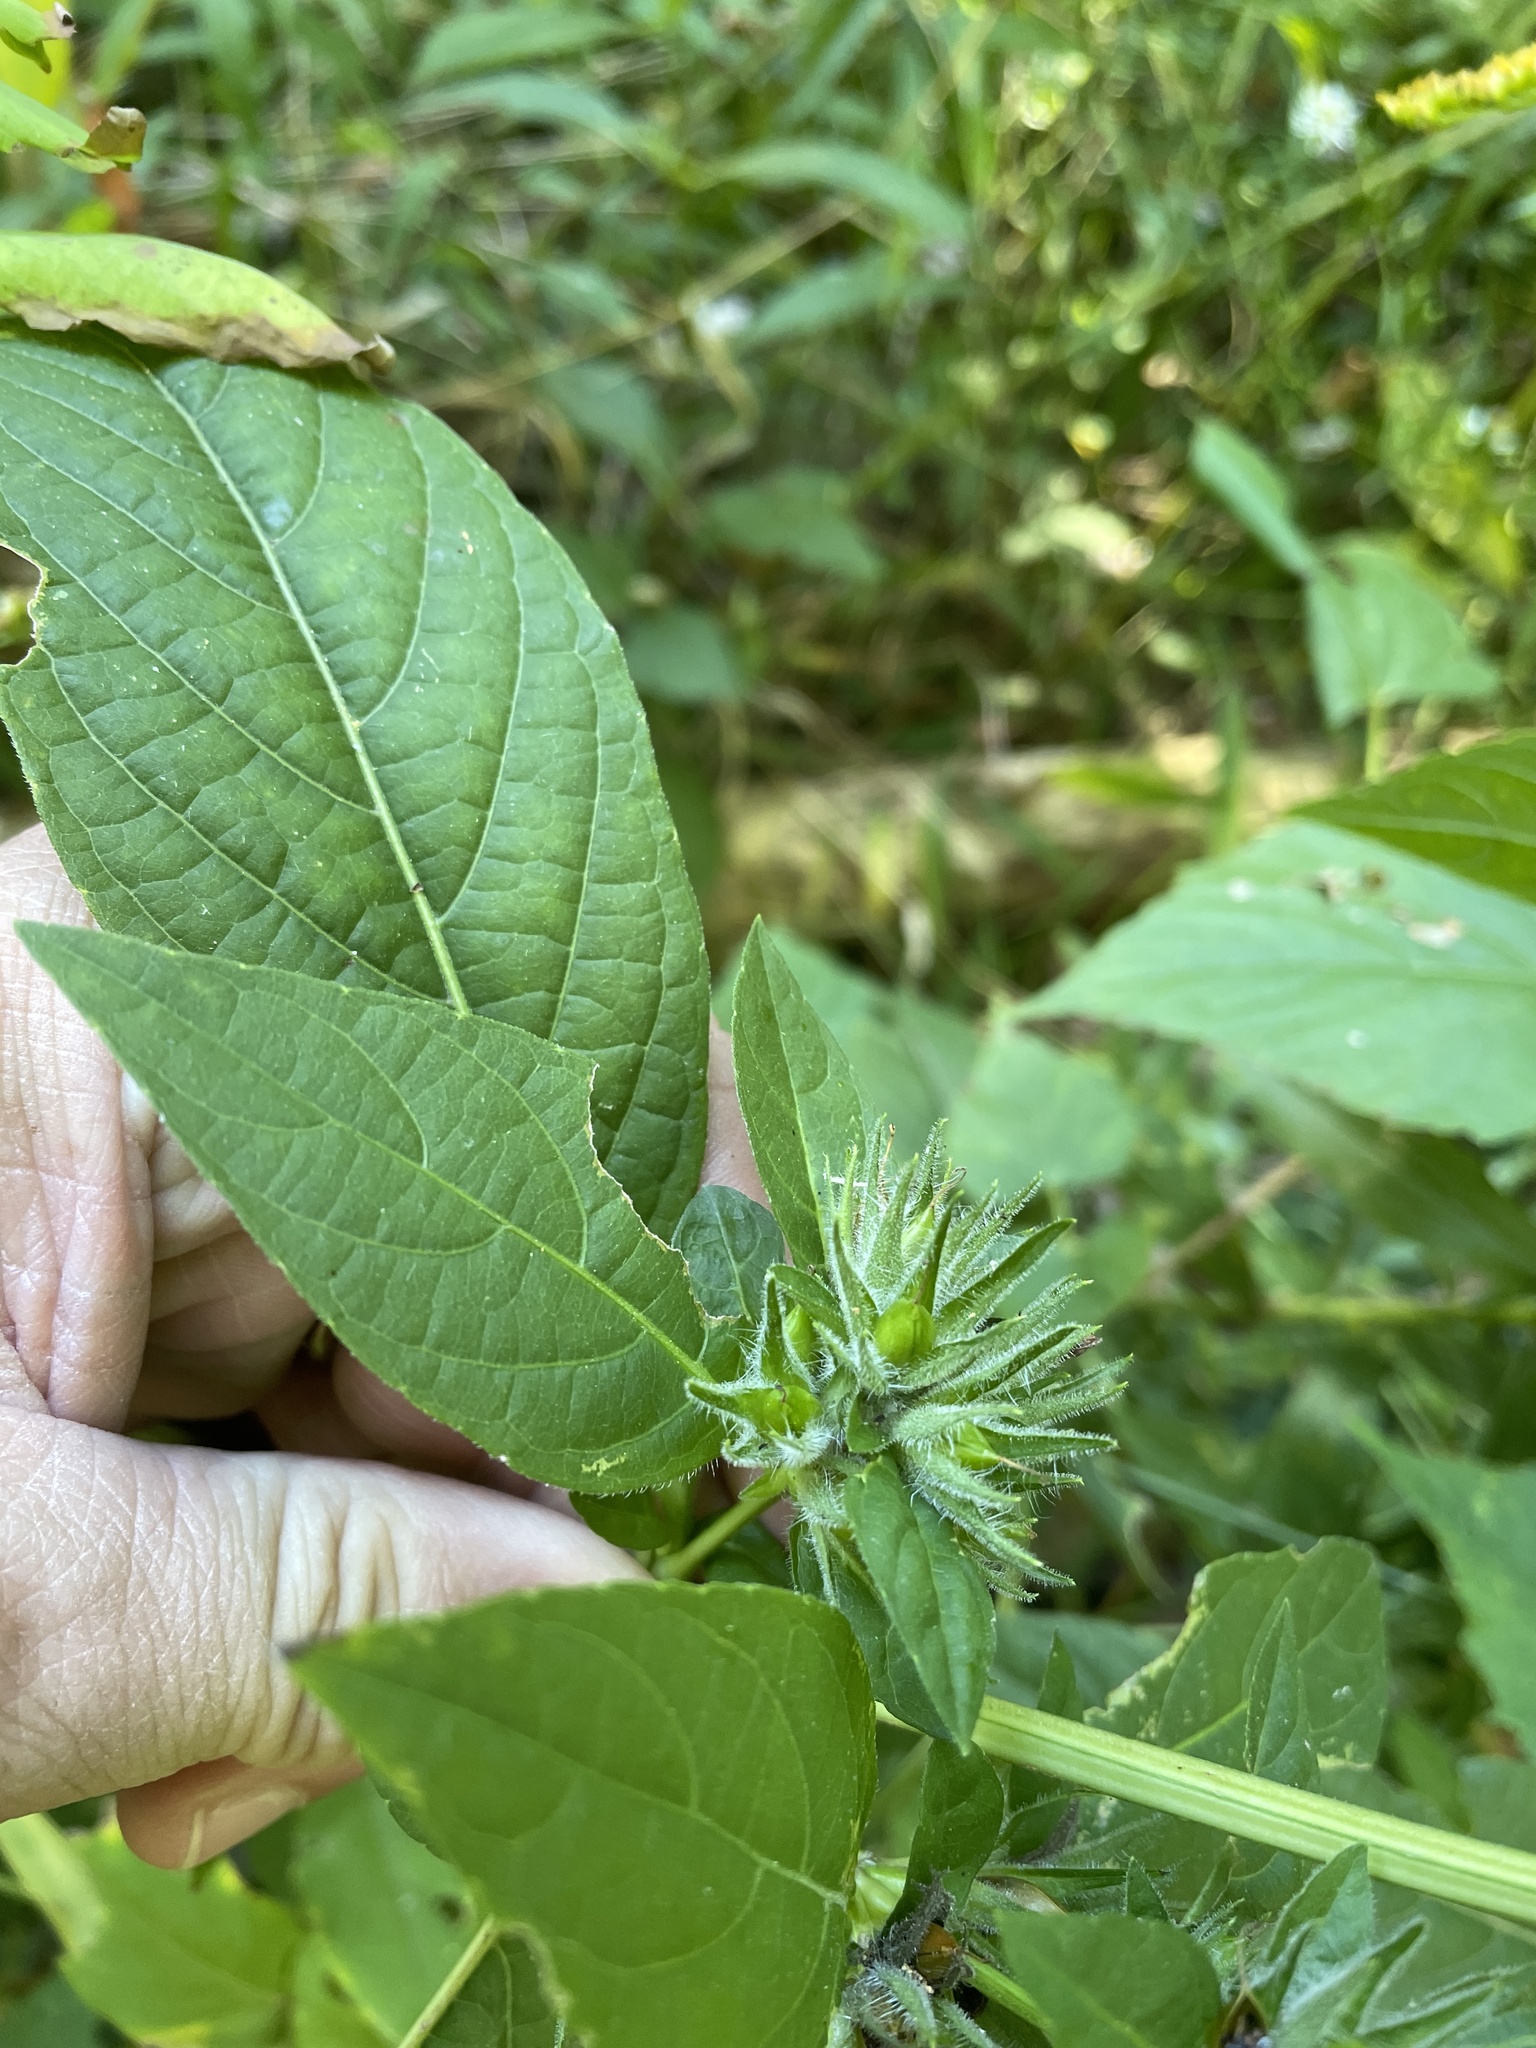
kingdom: Plantae
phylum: Tracheophyta
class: Magnoliopsida
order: Lamiales
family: Acanthaceae
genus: Ruellia
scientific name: Ruellia strepens
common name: Limestone wild petunia
